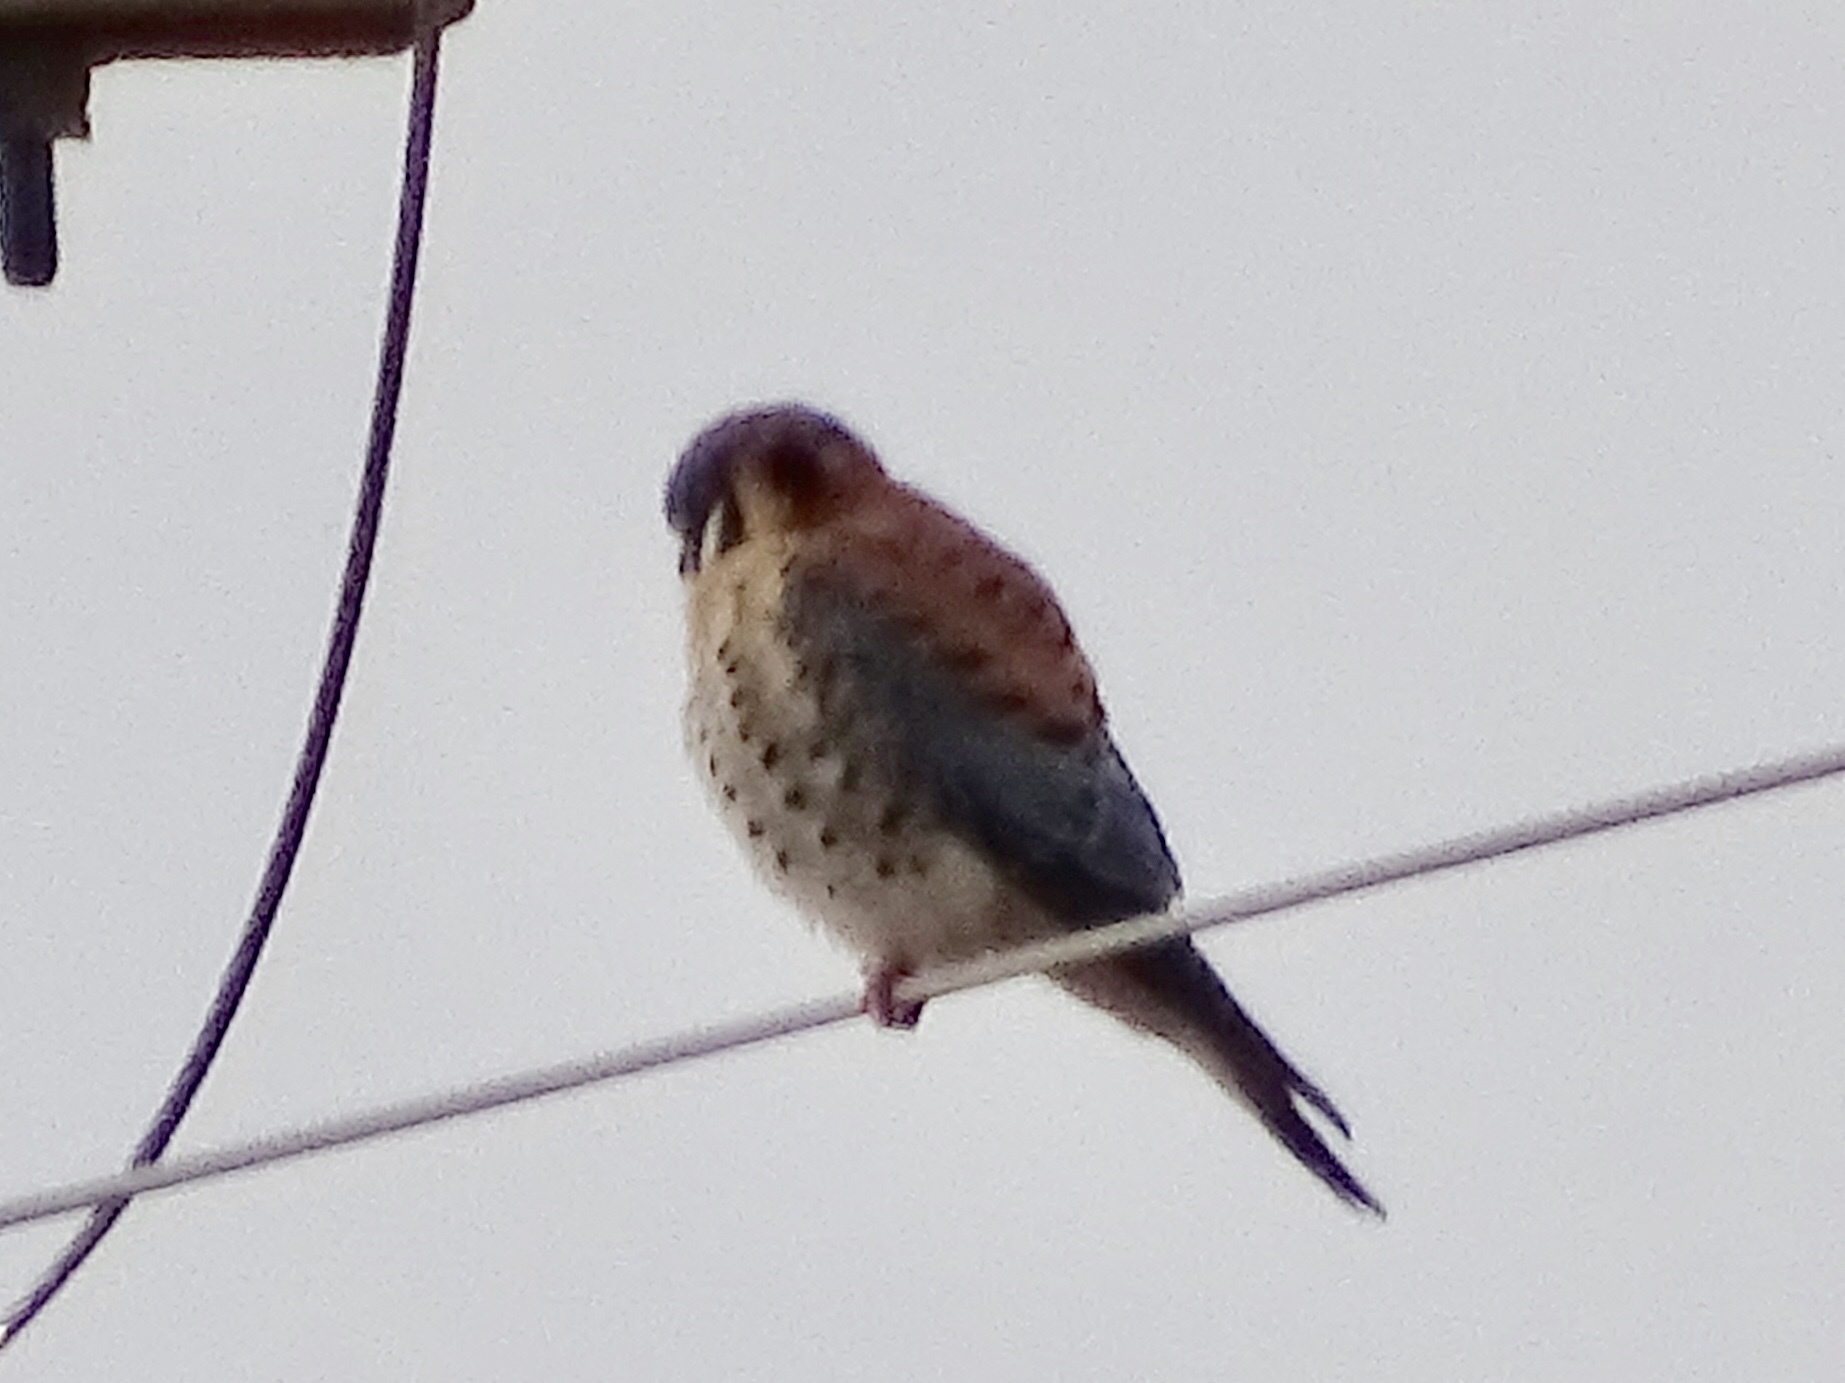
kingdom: Animalia
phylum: Chordata
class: Aves
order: Falconiformes
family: Falconidae
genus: Falco
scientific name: Falco sparverius
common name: American kestrel
